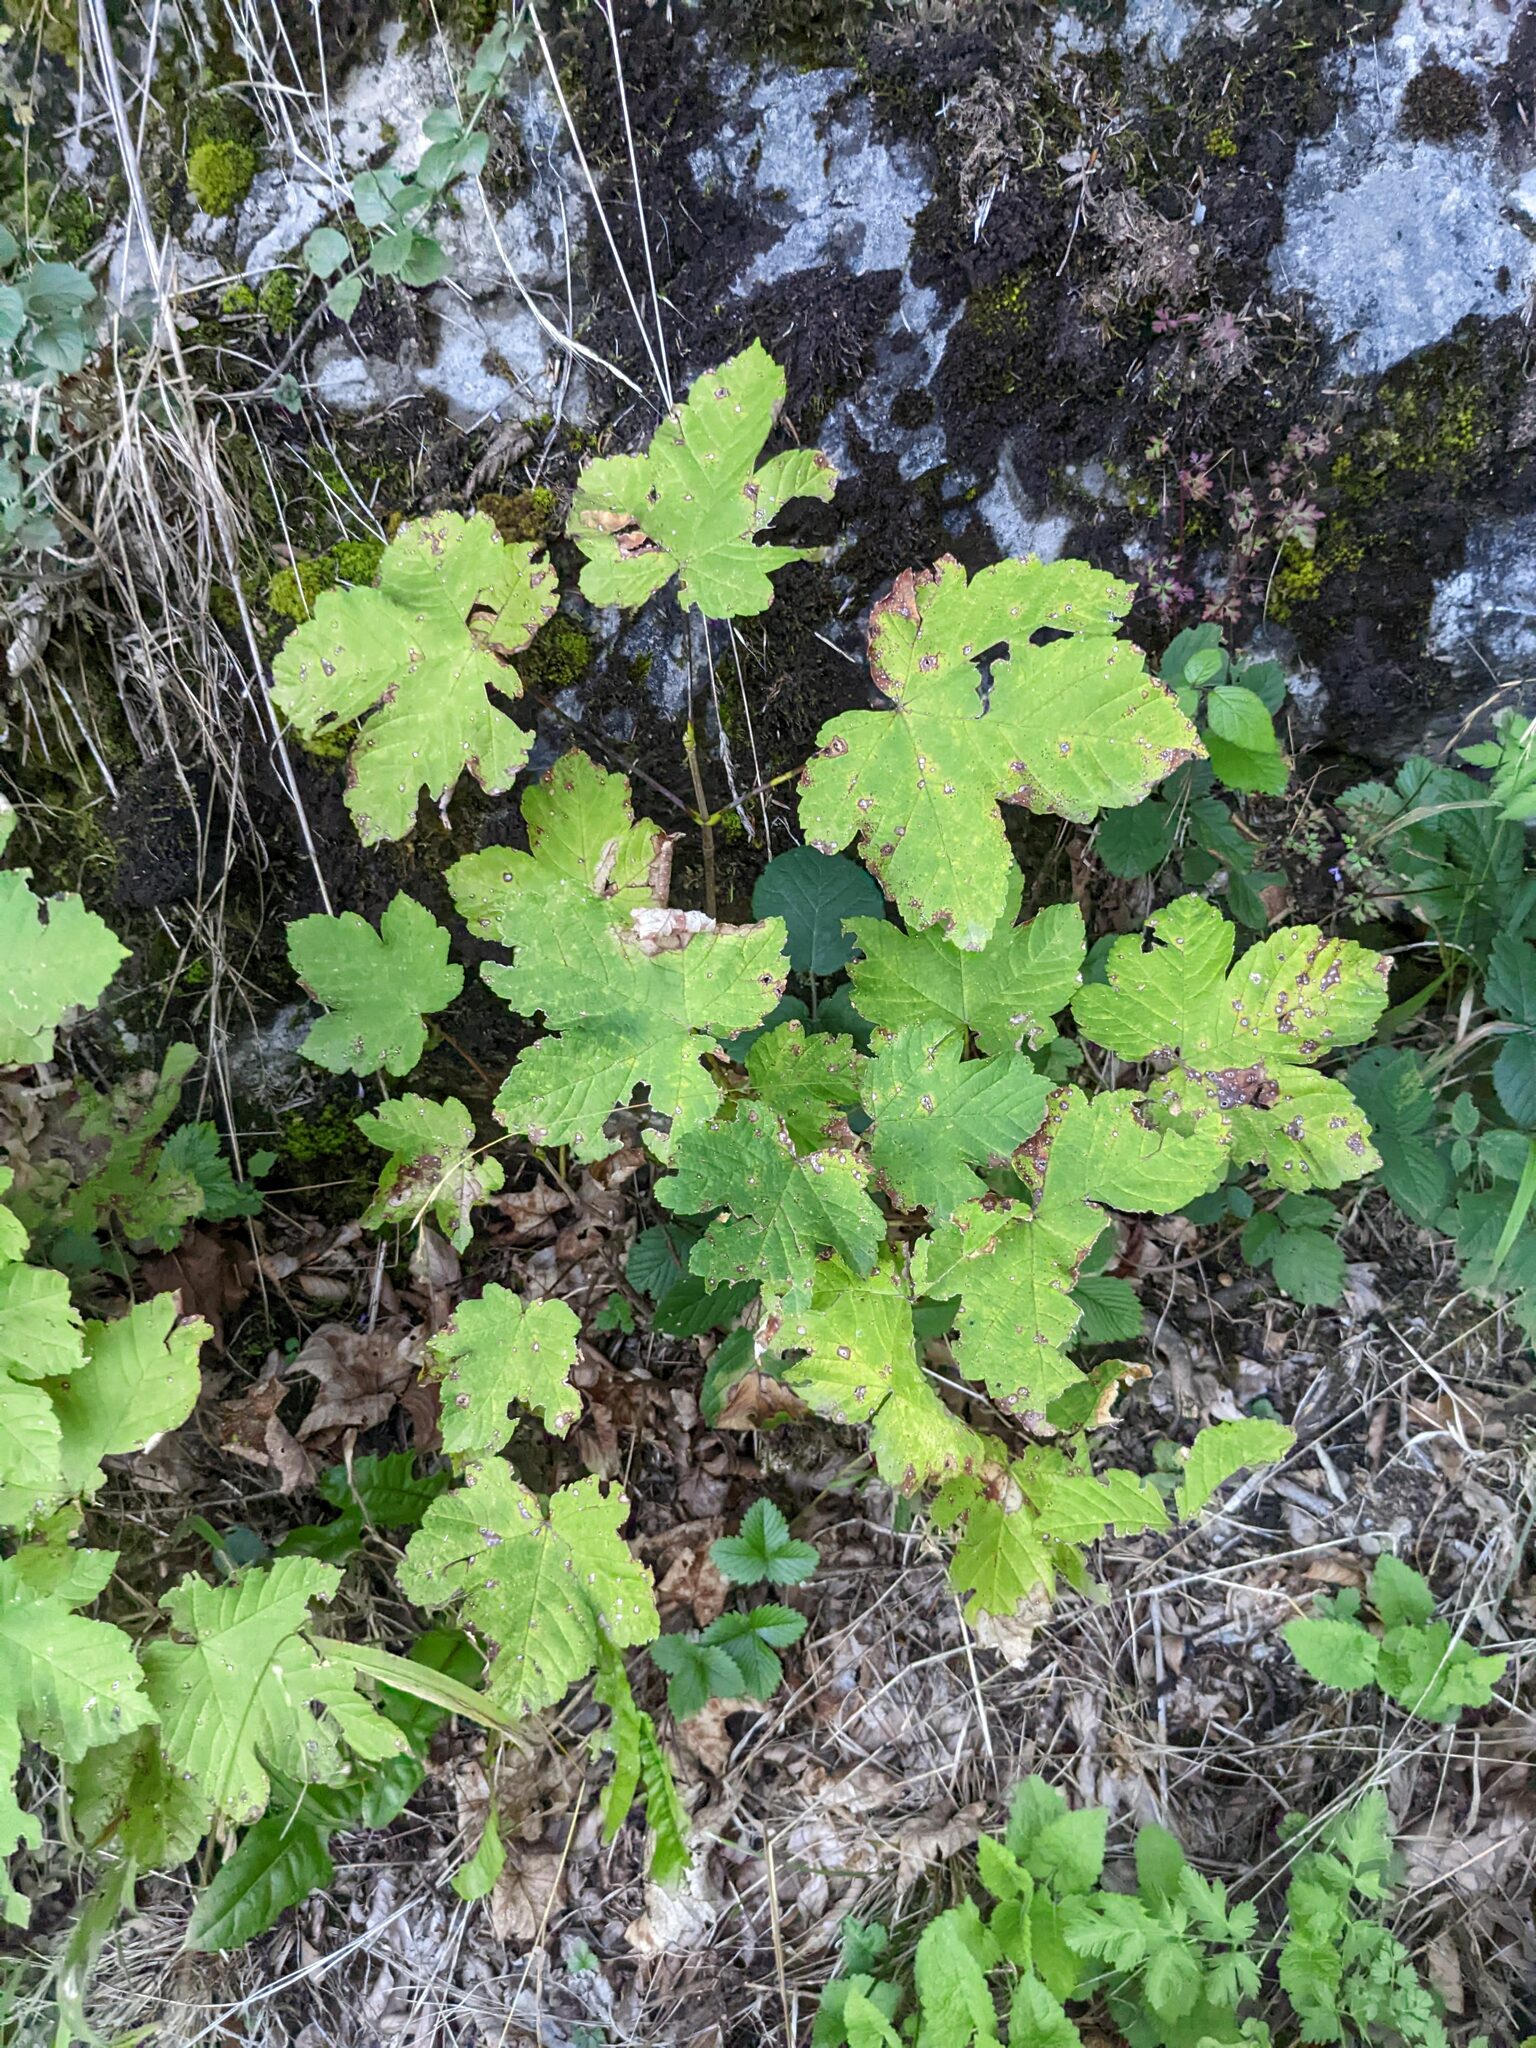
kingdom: Plantae
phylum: Tracheophyta
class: Magnoliopsida
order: Sapindales
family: Sapindaceae
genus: Acer
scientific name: Acer pseudoplatanus
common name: Sycamore
